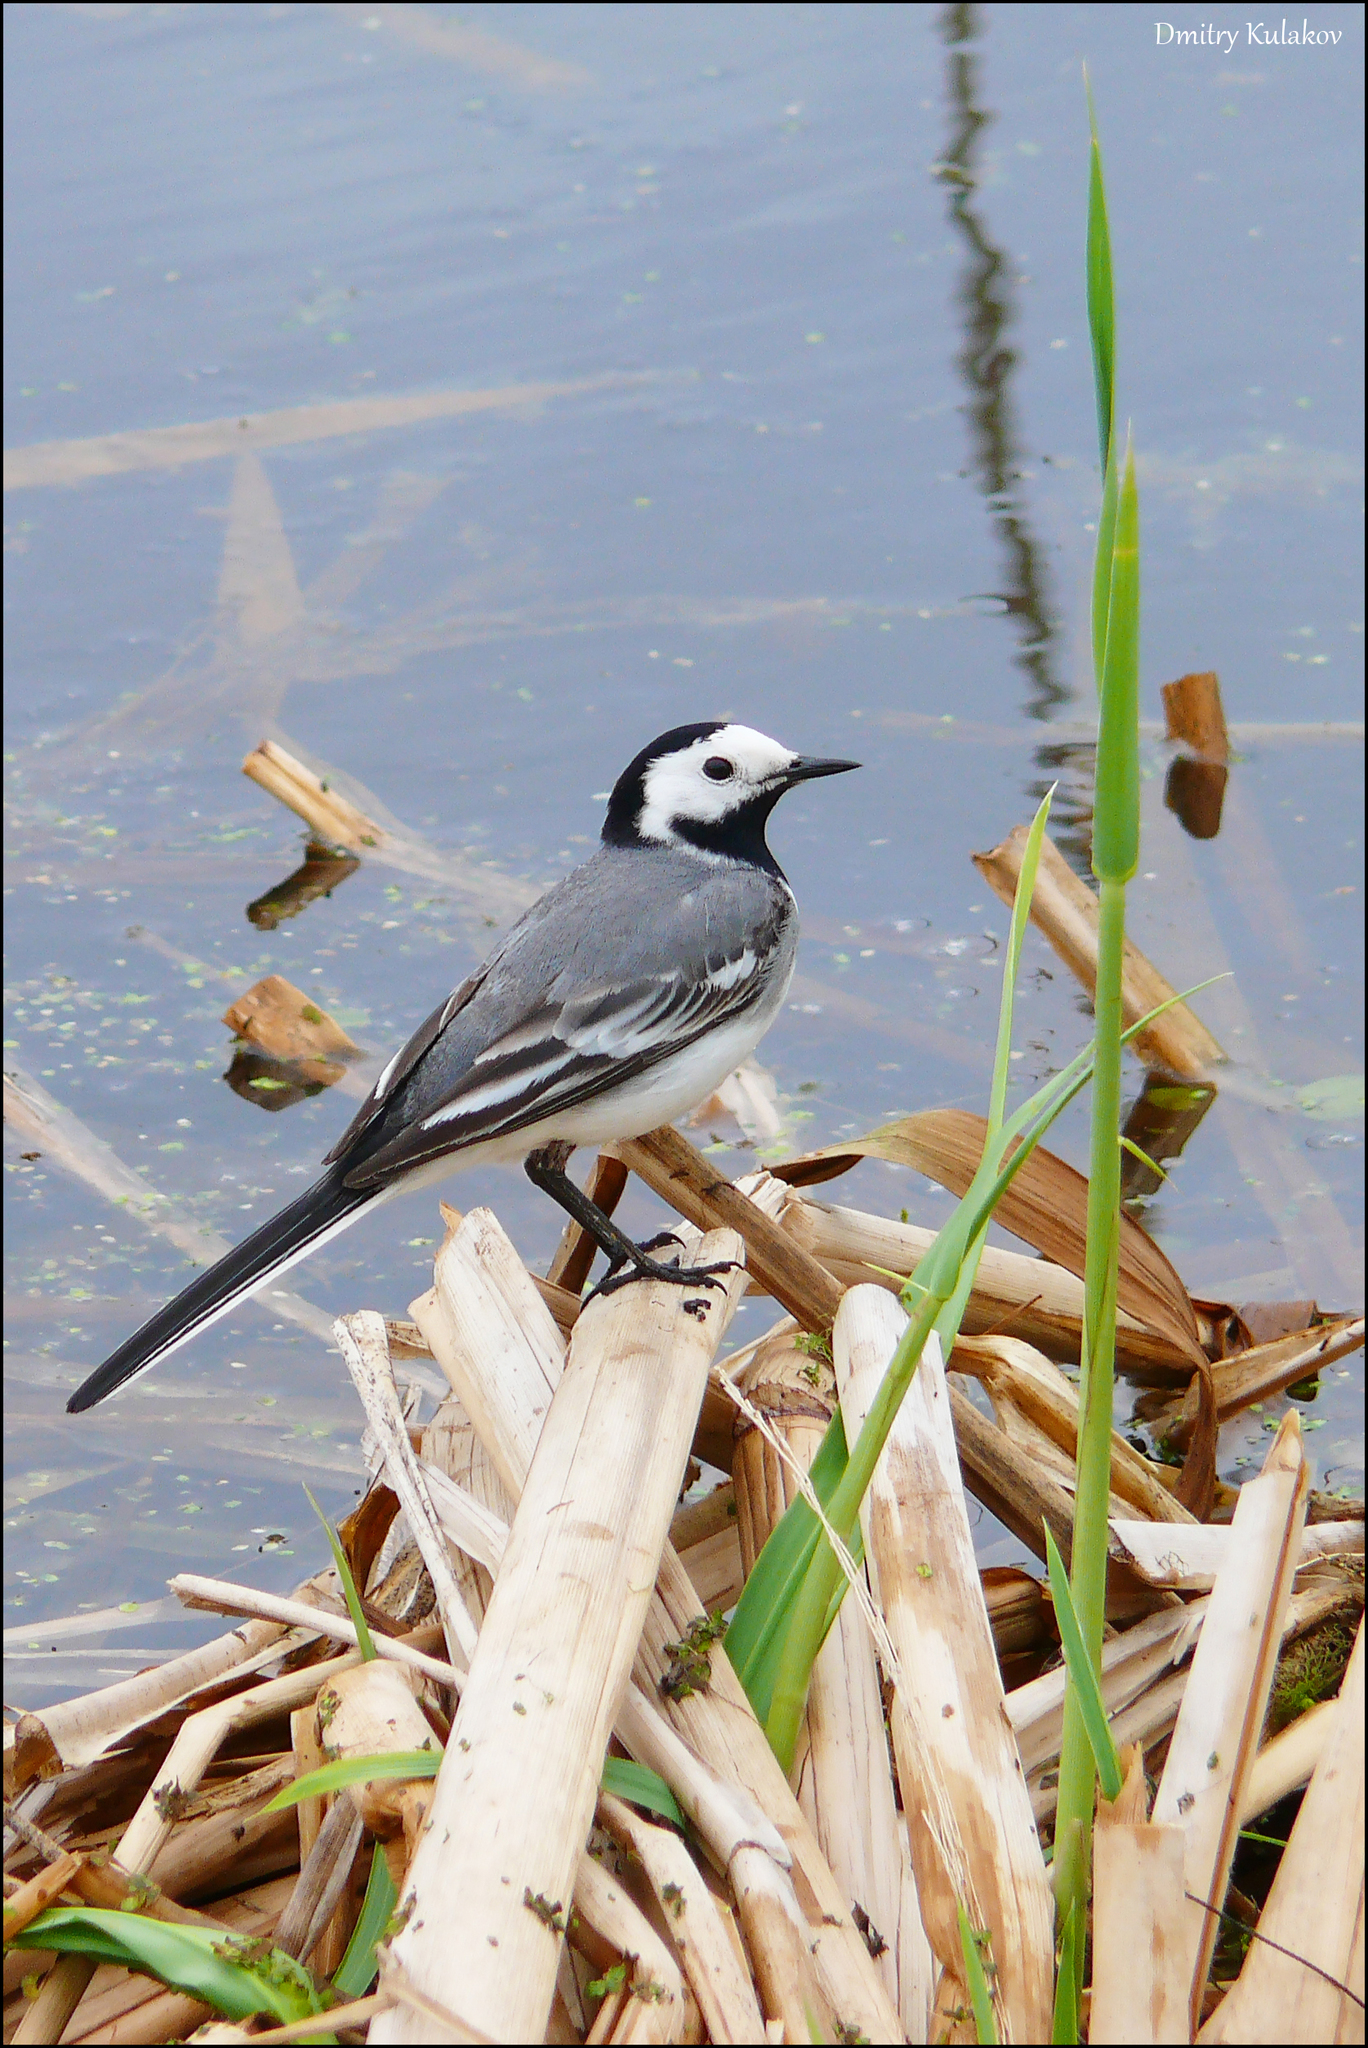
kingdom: Animalia
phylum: Chordata
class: Aves
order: Passeriformes
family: Motacillidae
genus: Motacilla
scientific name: Motacilla alba
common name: White wagtail
